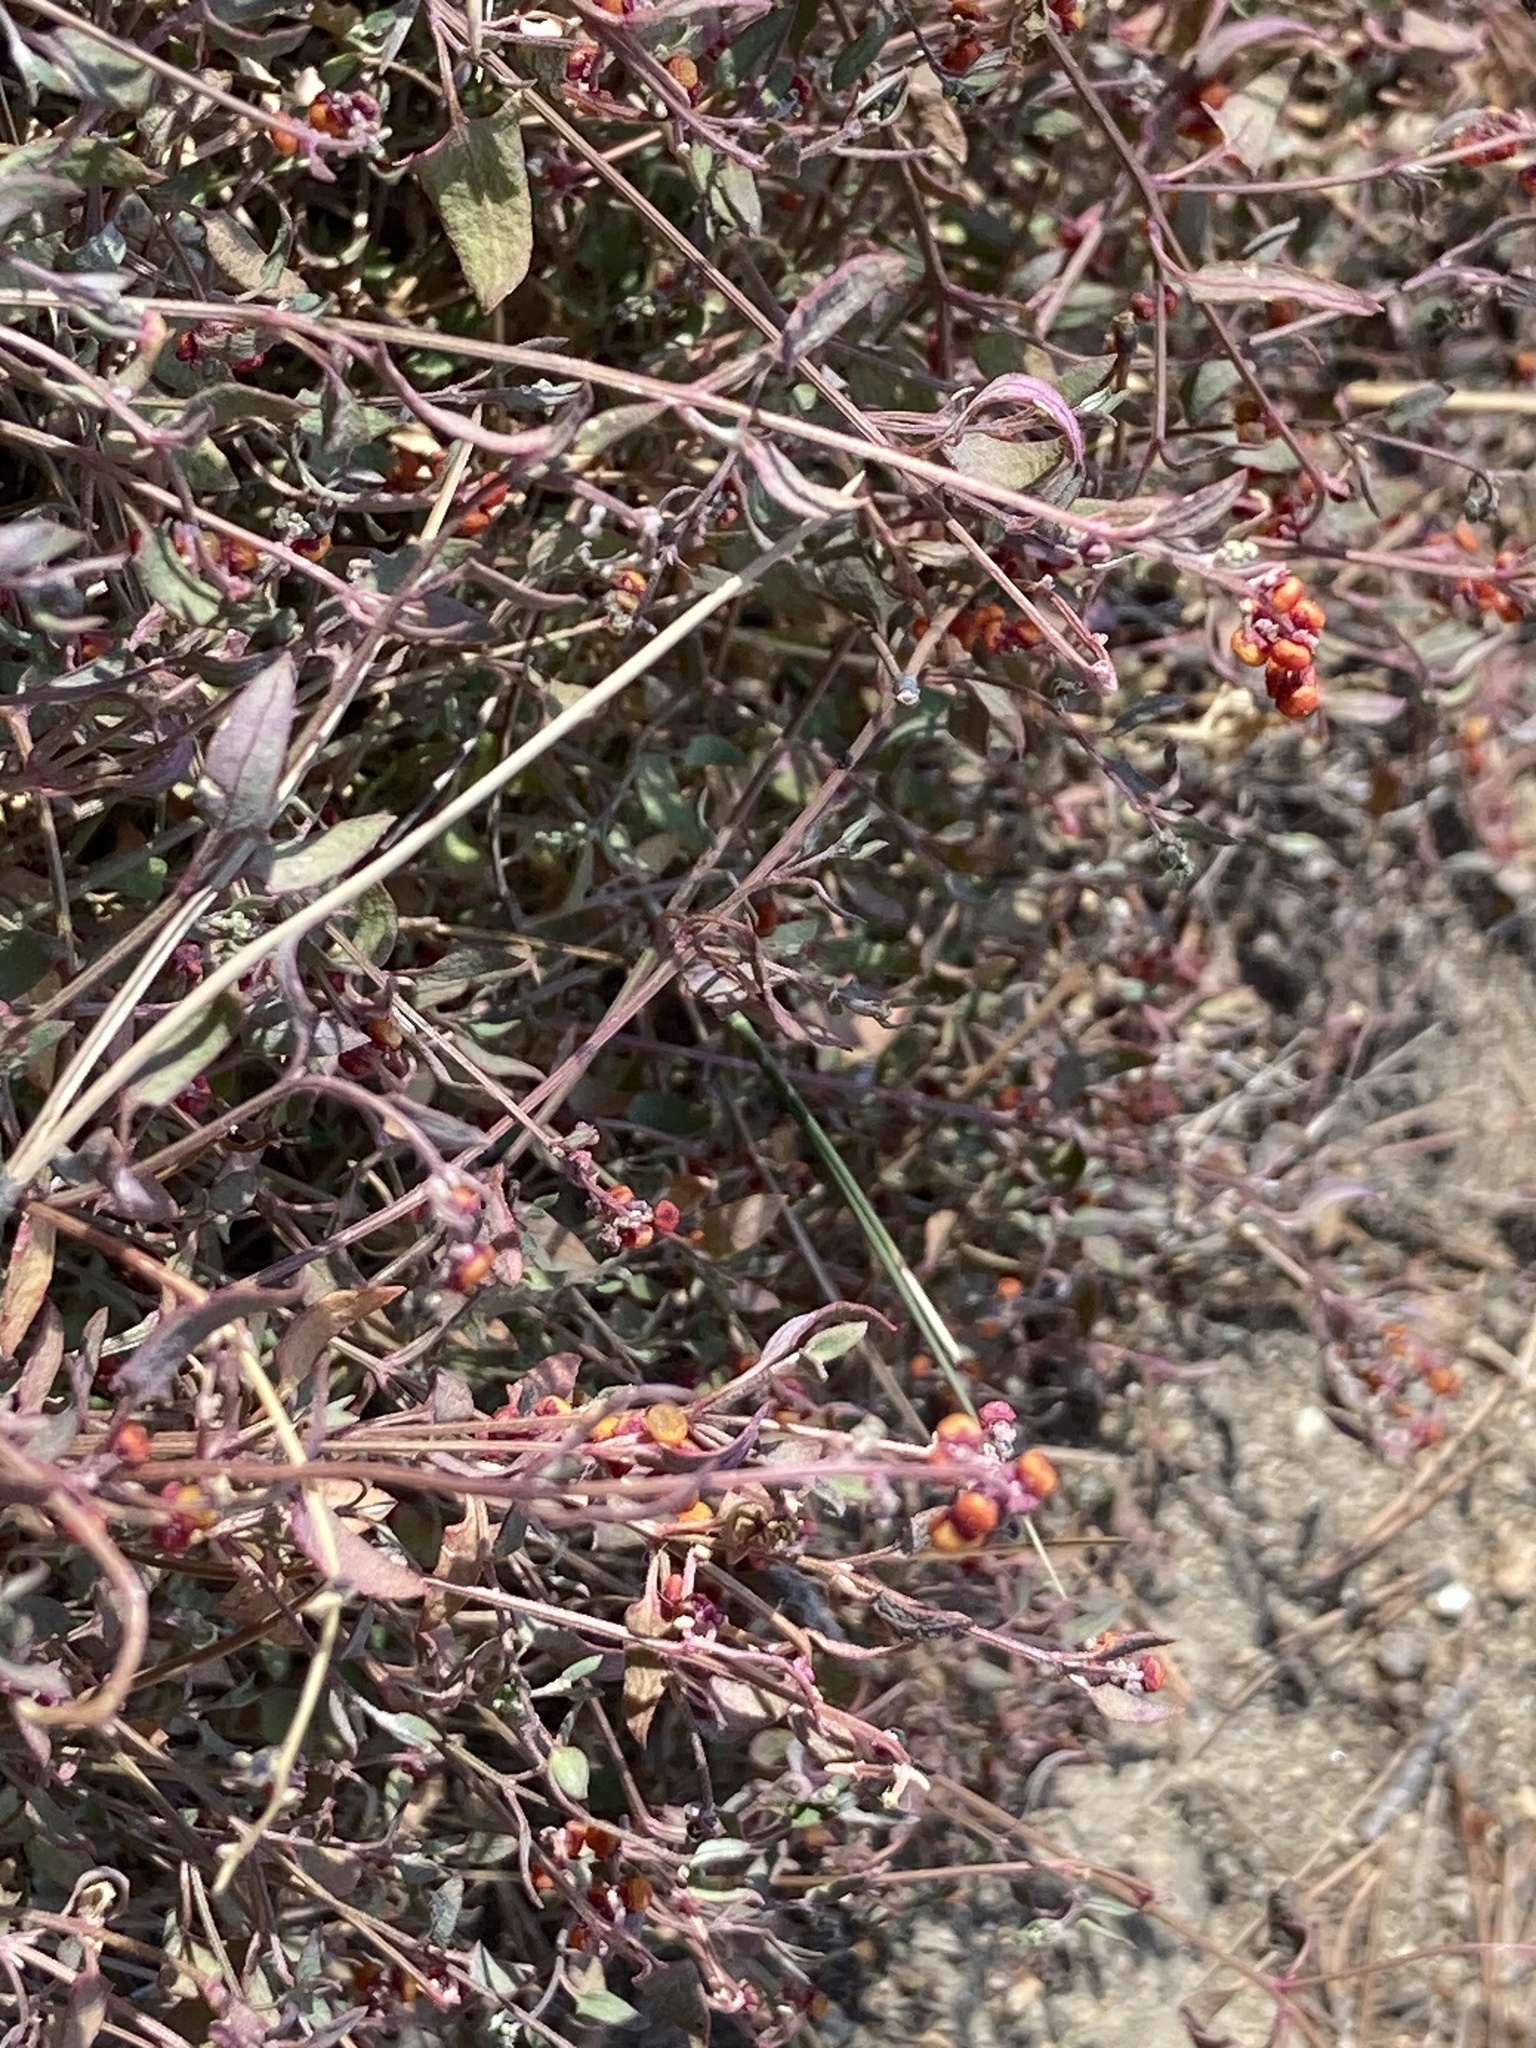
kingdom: Plantae
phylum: Tracheophyta
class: Magnoliopsida
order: Caryophyllales
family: Amaranthaceae
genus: Chenopodium
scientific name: Chenopodium nutans
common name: Climbing-saltbush
